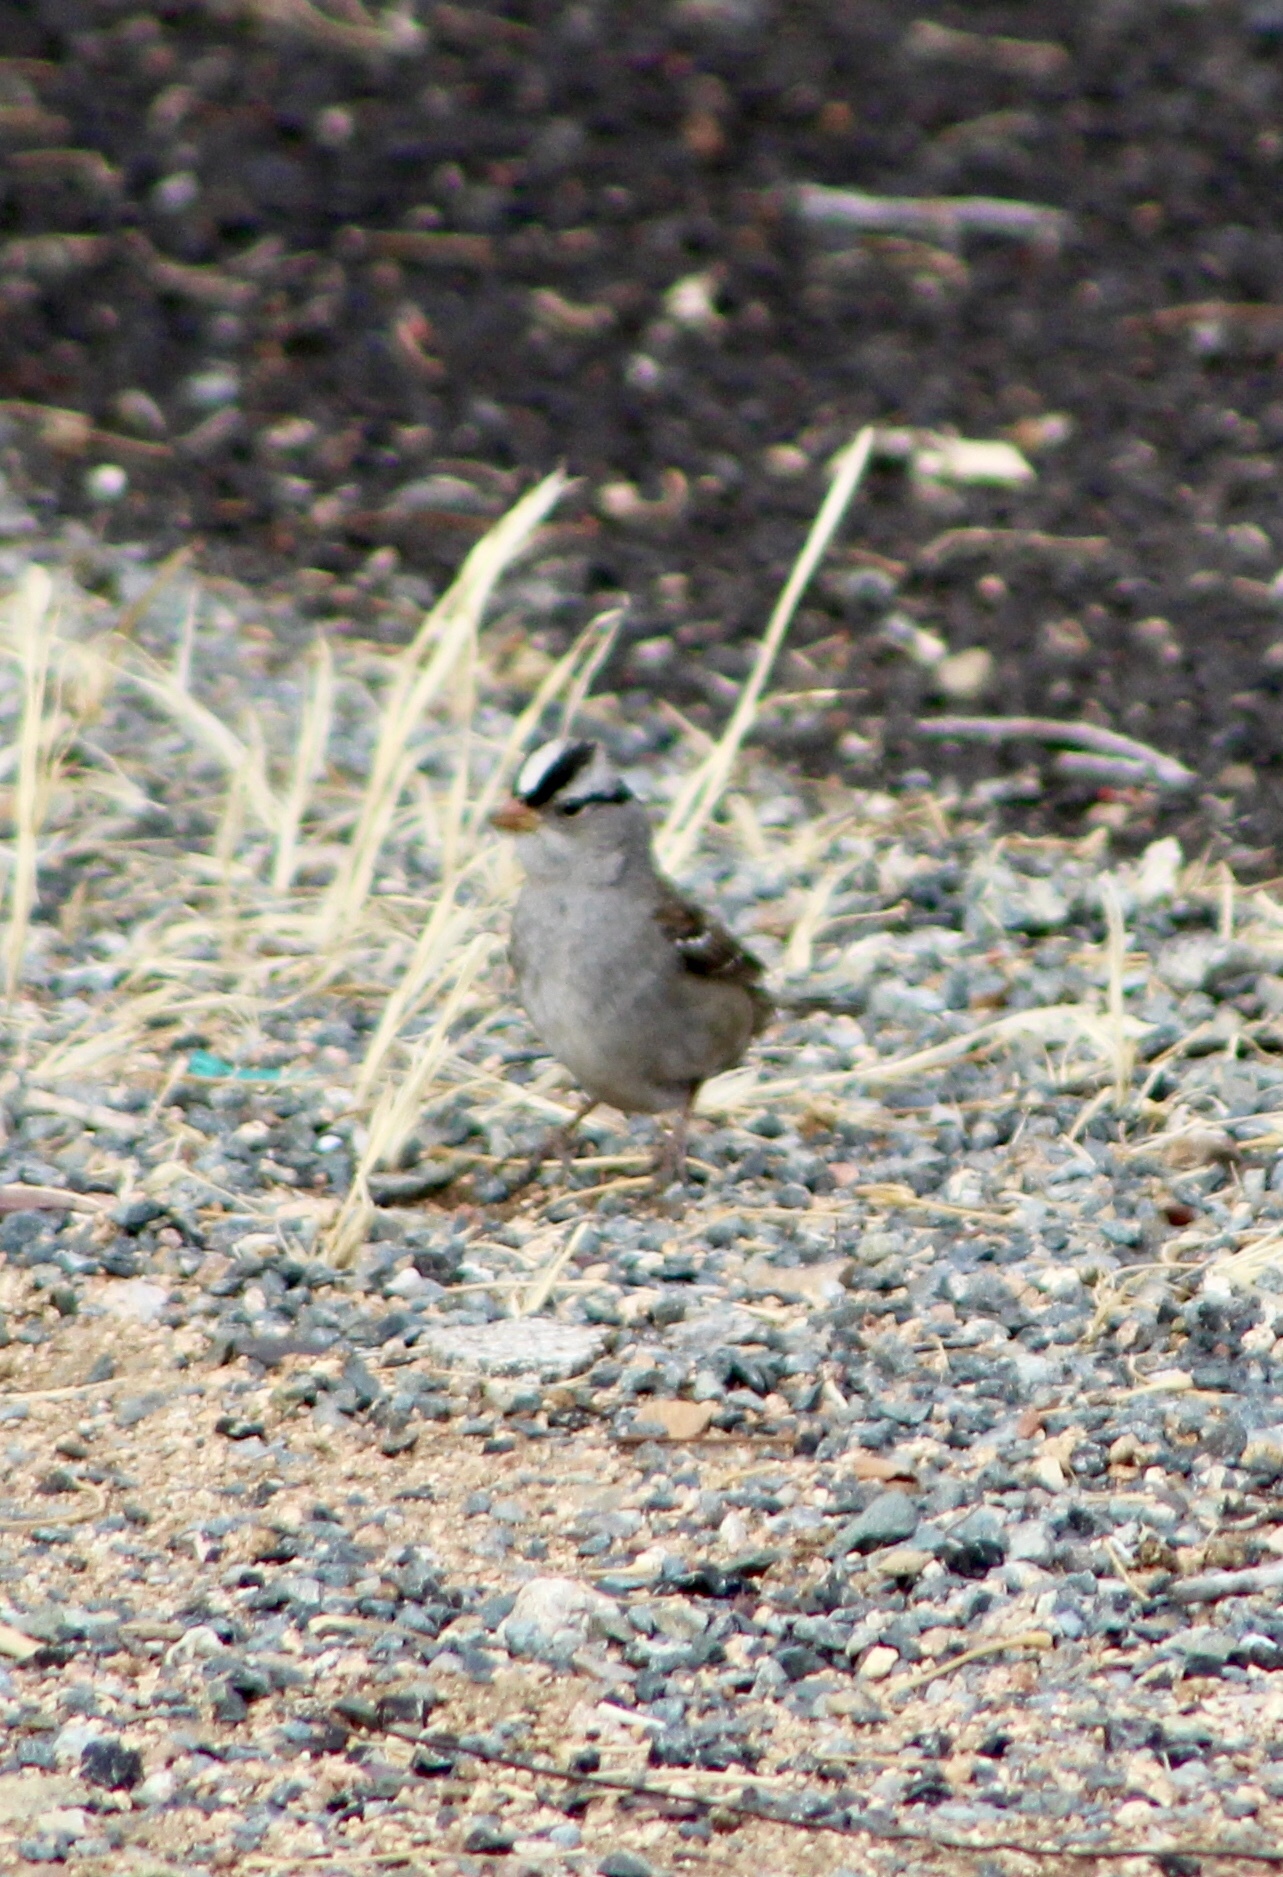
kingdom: Animalia
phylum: Chordata
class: Aves
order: Passeriformes
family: Passerellidae
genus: Zonotrichia
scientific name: Zonotrichia leucophrys
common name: White-crowned sparrow
